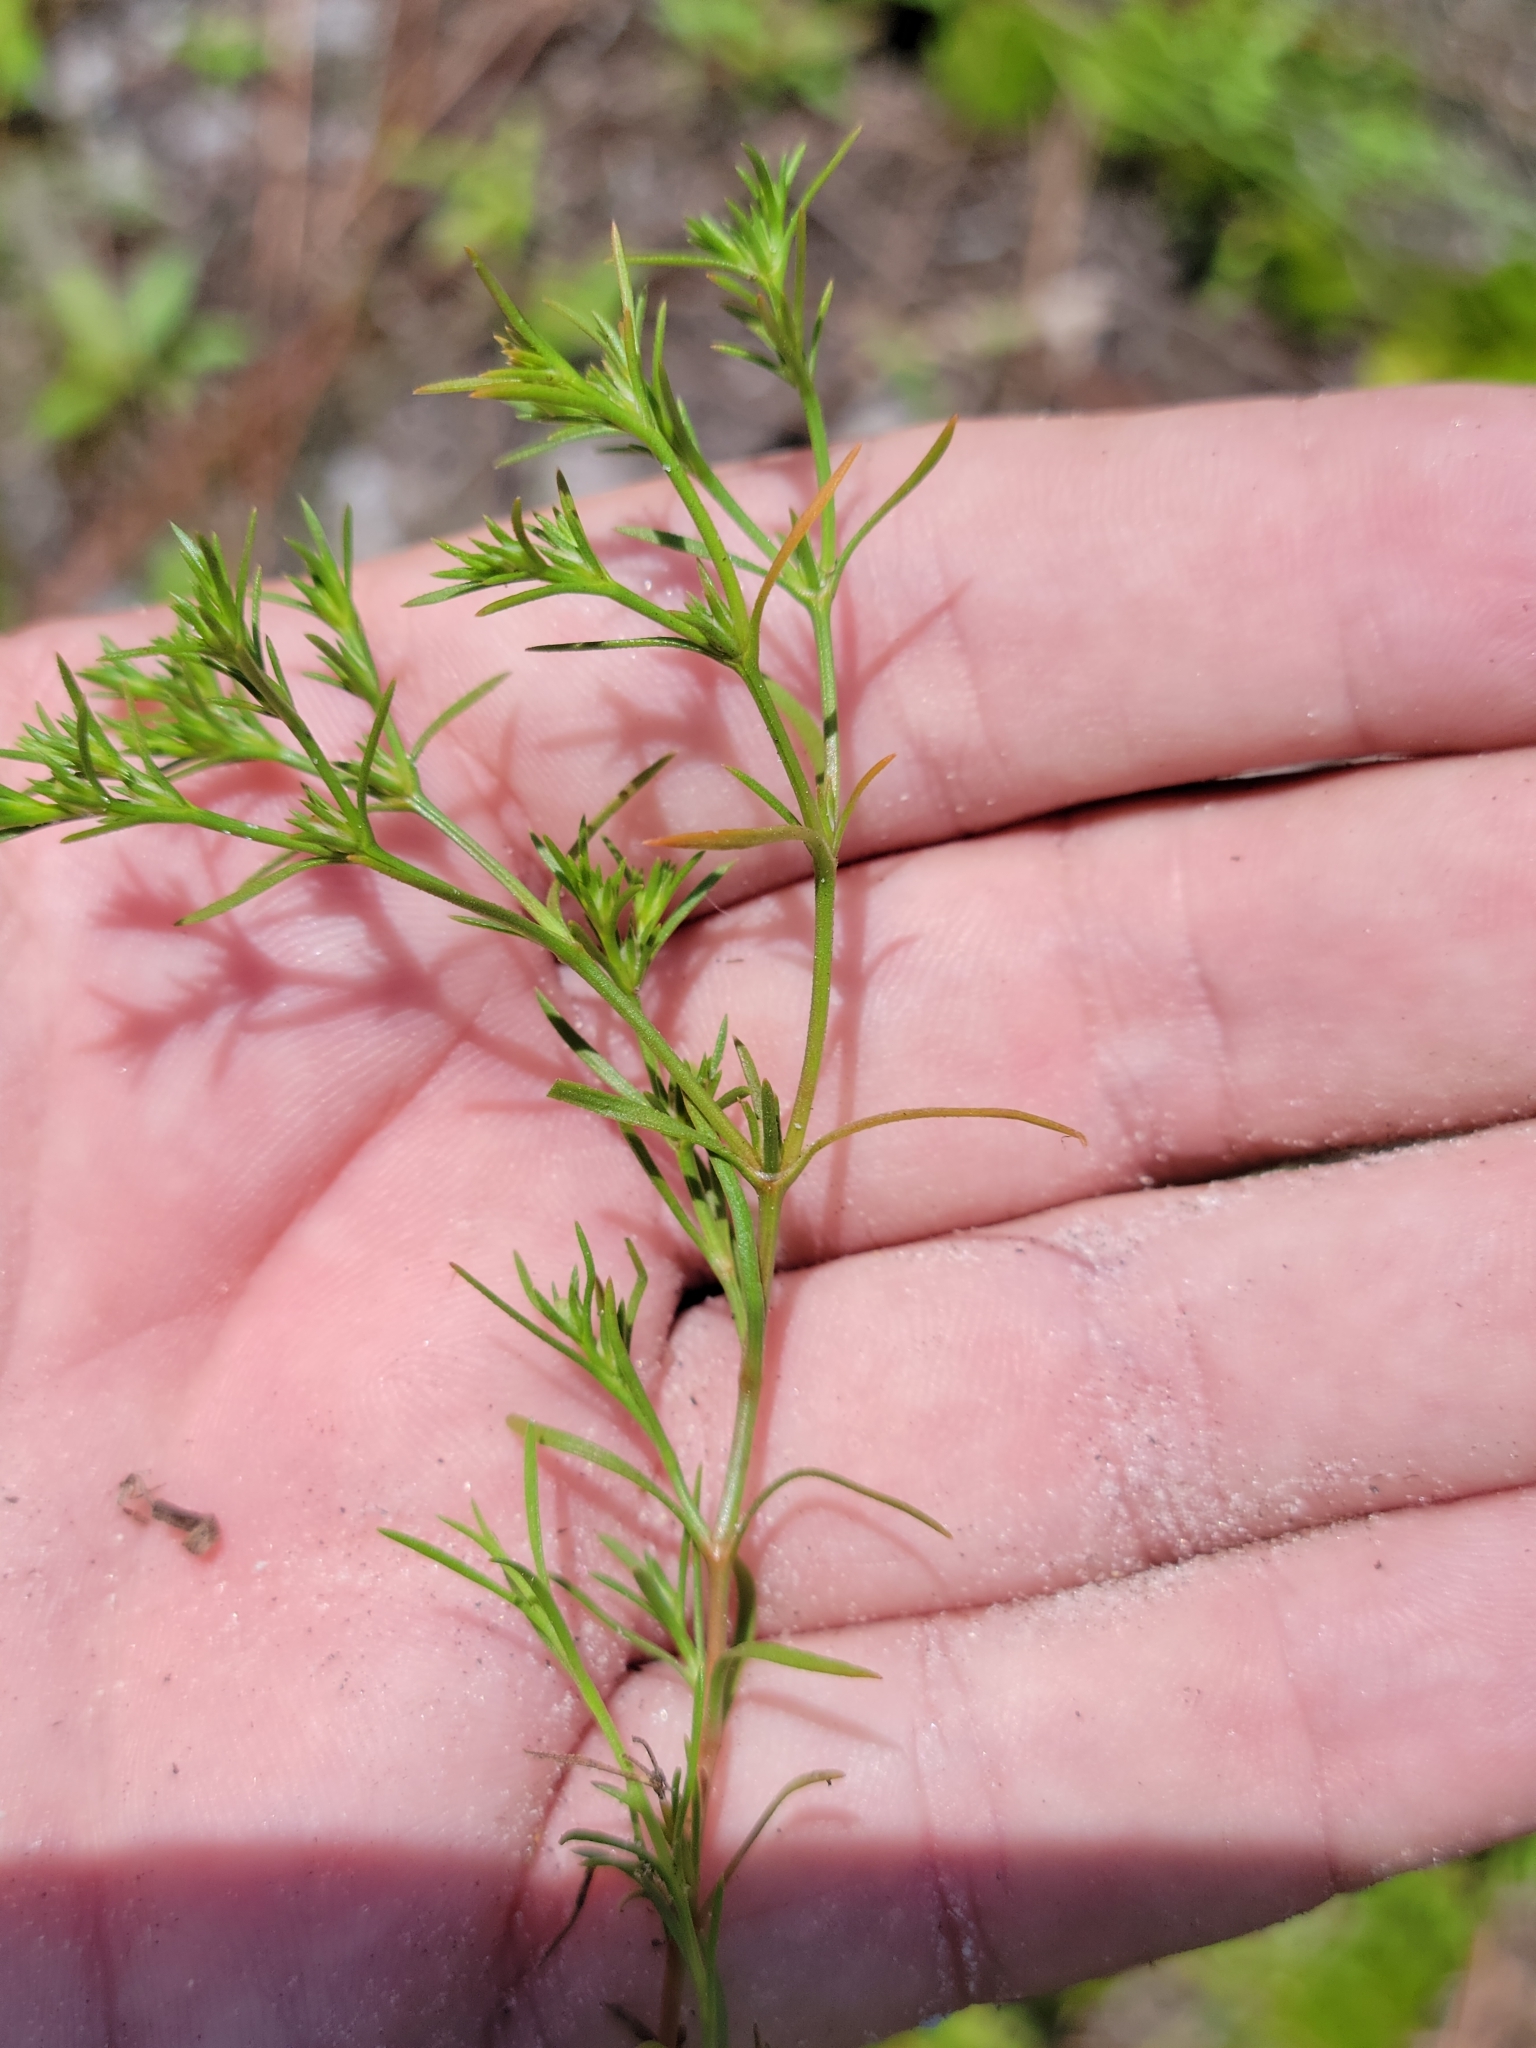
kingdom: Plantae
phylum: Tracheophyta
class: Magnoliopsida
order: Lamiales
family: Tetrachondraceae
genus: Polypremum
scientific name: Polypremum procumbens
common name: Juniper-leaf
